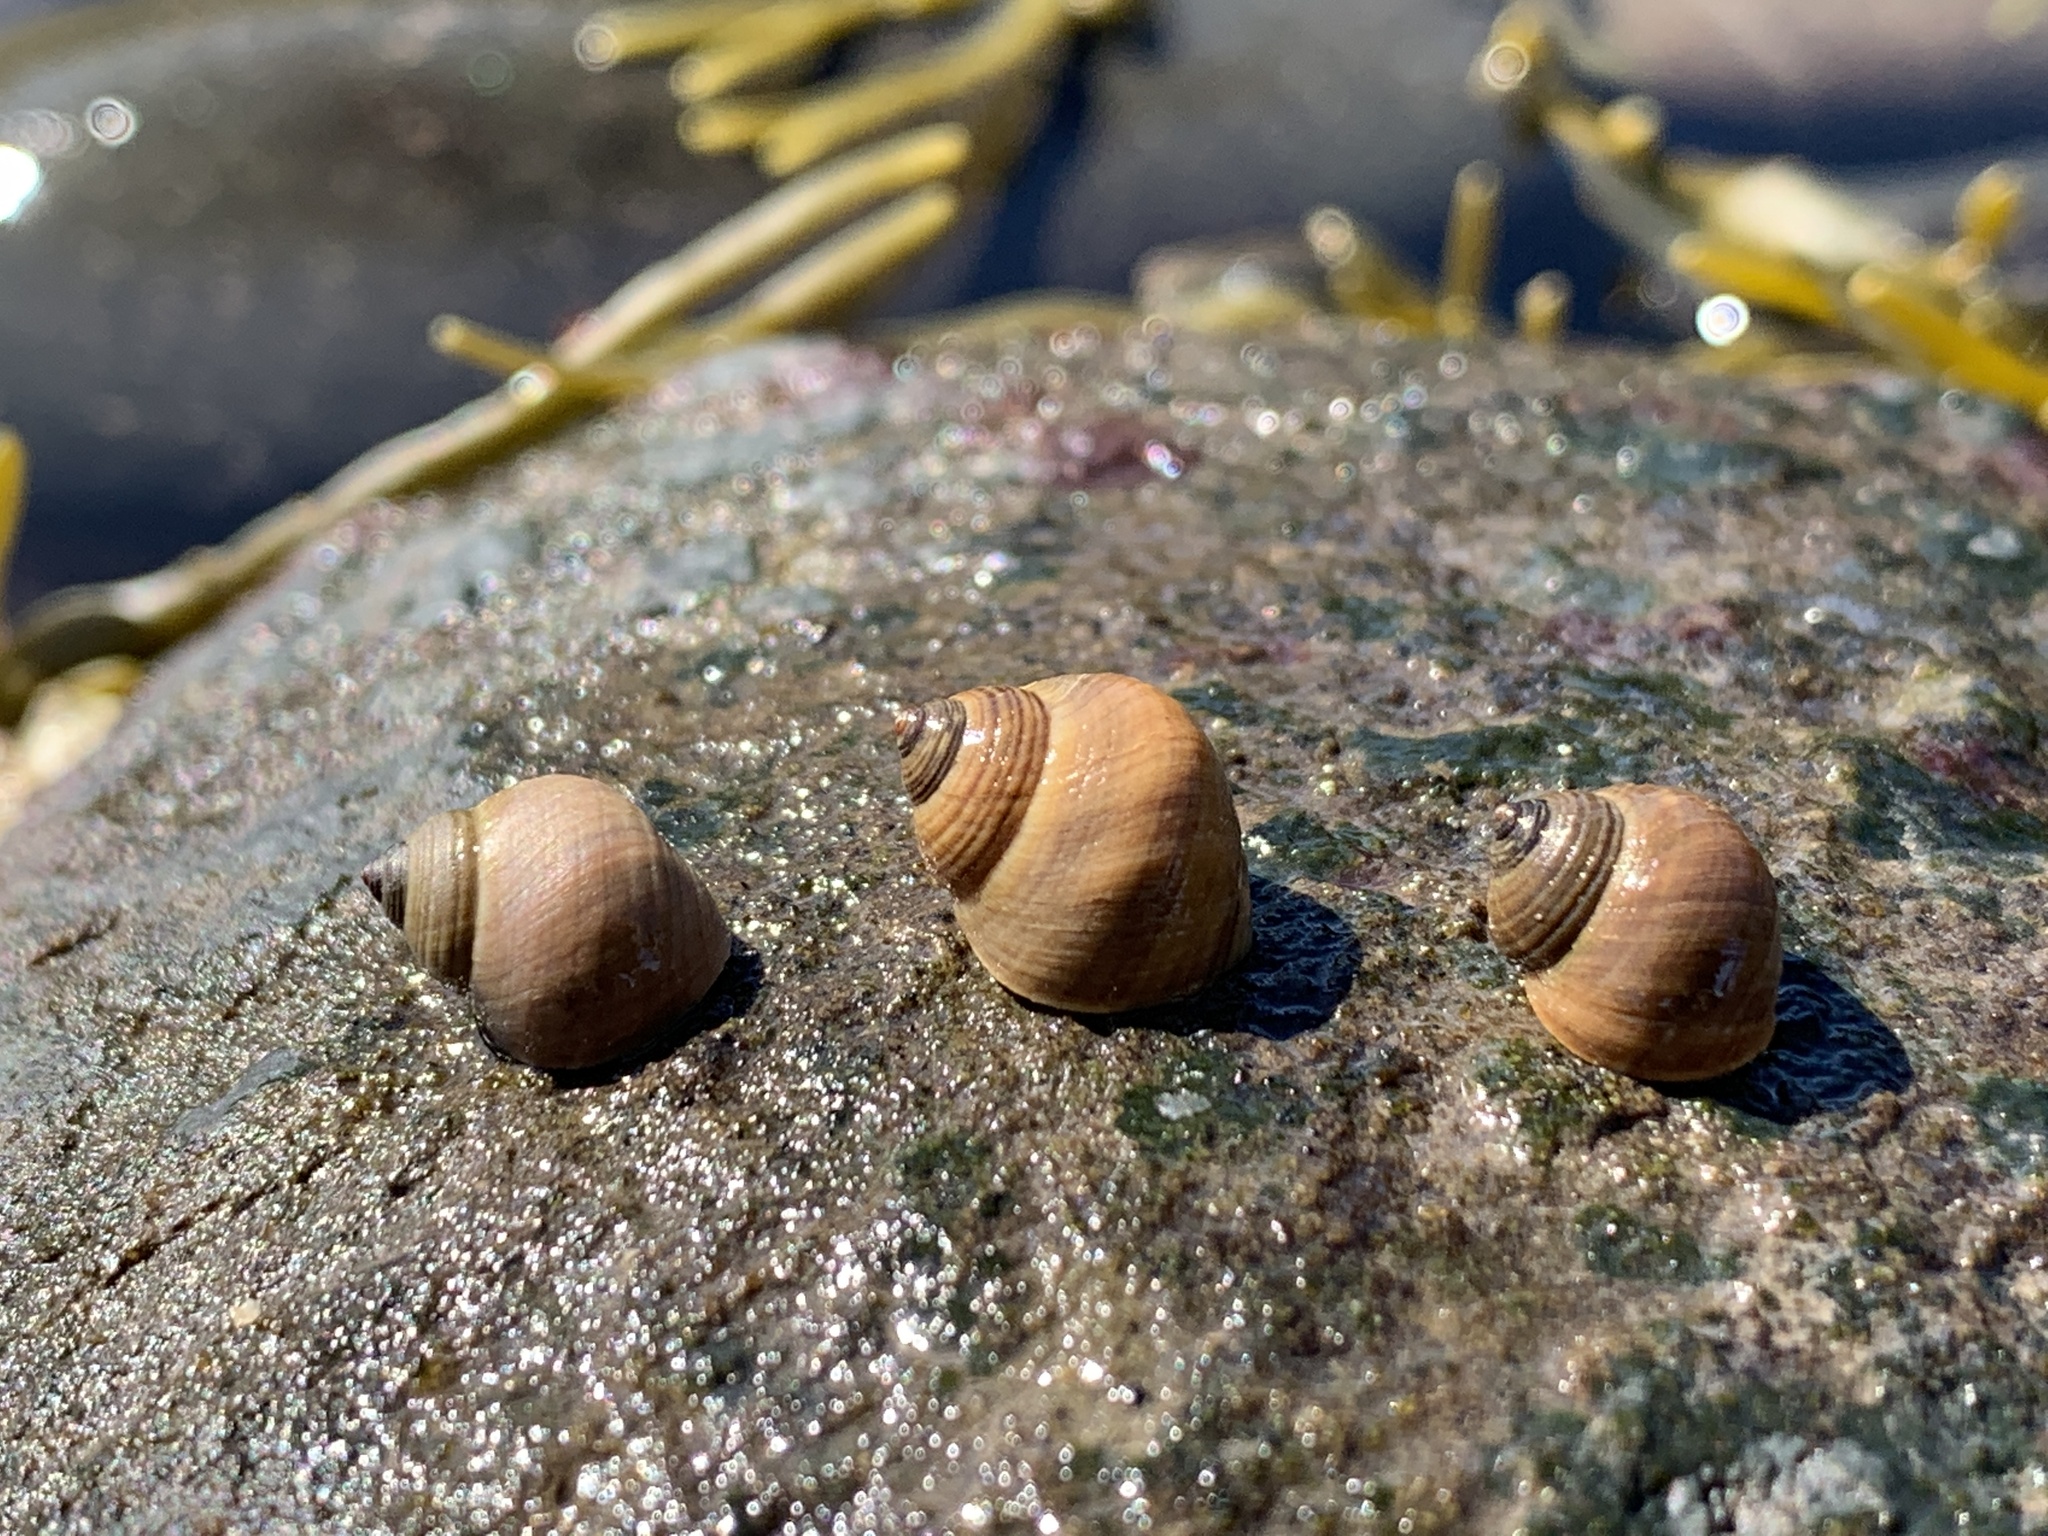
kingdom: Animalia
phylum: Mollusca
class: Gastropoda
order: Littorinimorpha
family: Littorinidae
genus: Littorina
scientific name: Littorina saxatilis
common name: Black-lined periwinkle
